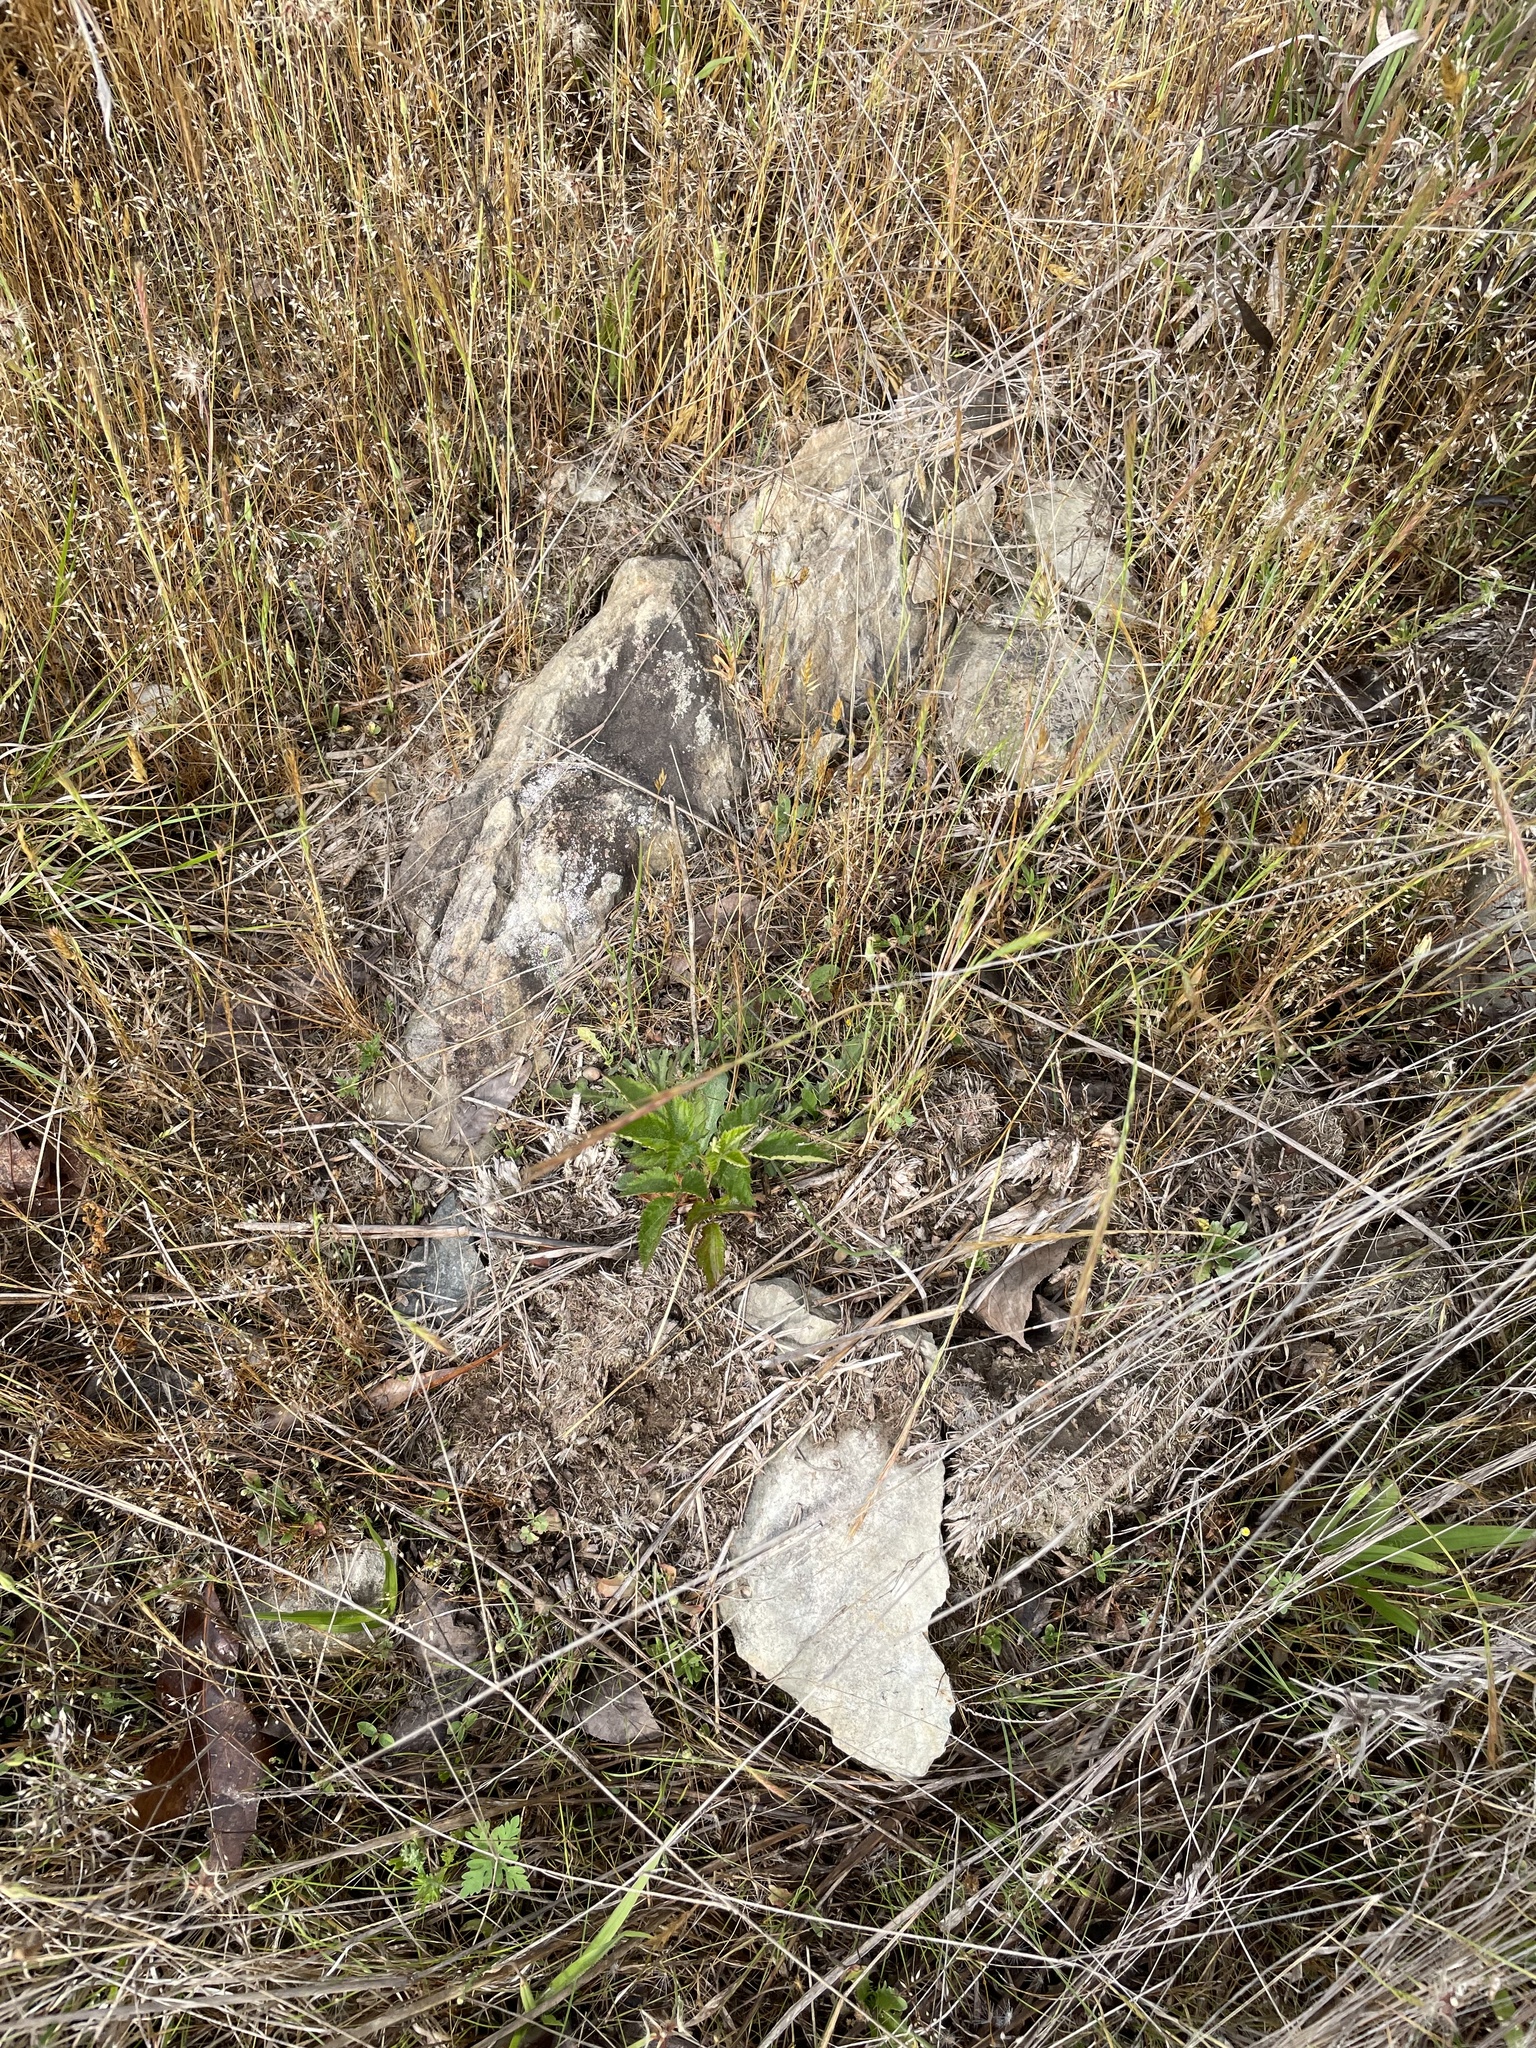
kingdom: Plantae
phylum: Tracheophyta
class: Magnoliopsida
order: Fabales
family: Fabaceae
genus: Tephrosia
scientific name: Tephrosia virginiana
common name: Rabbit-pea
